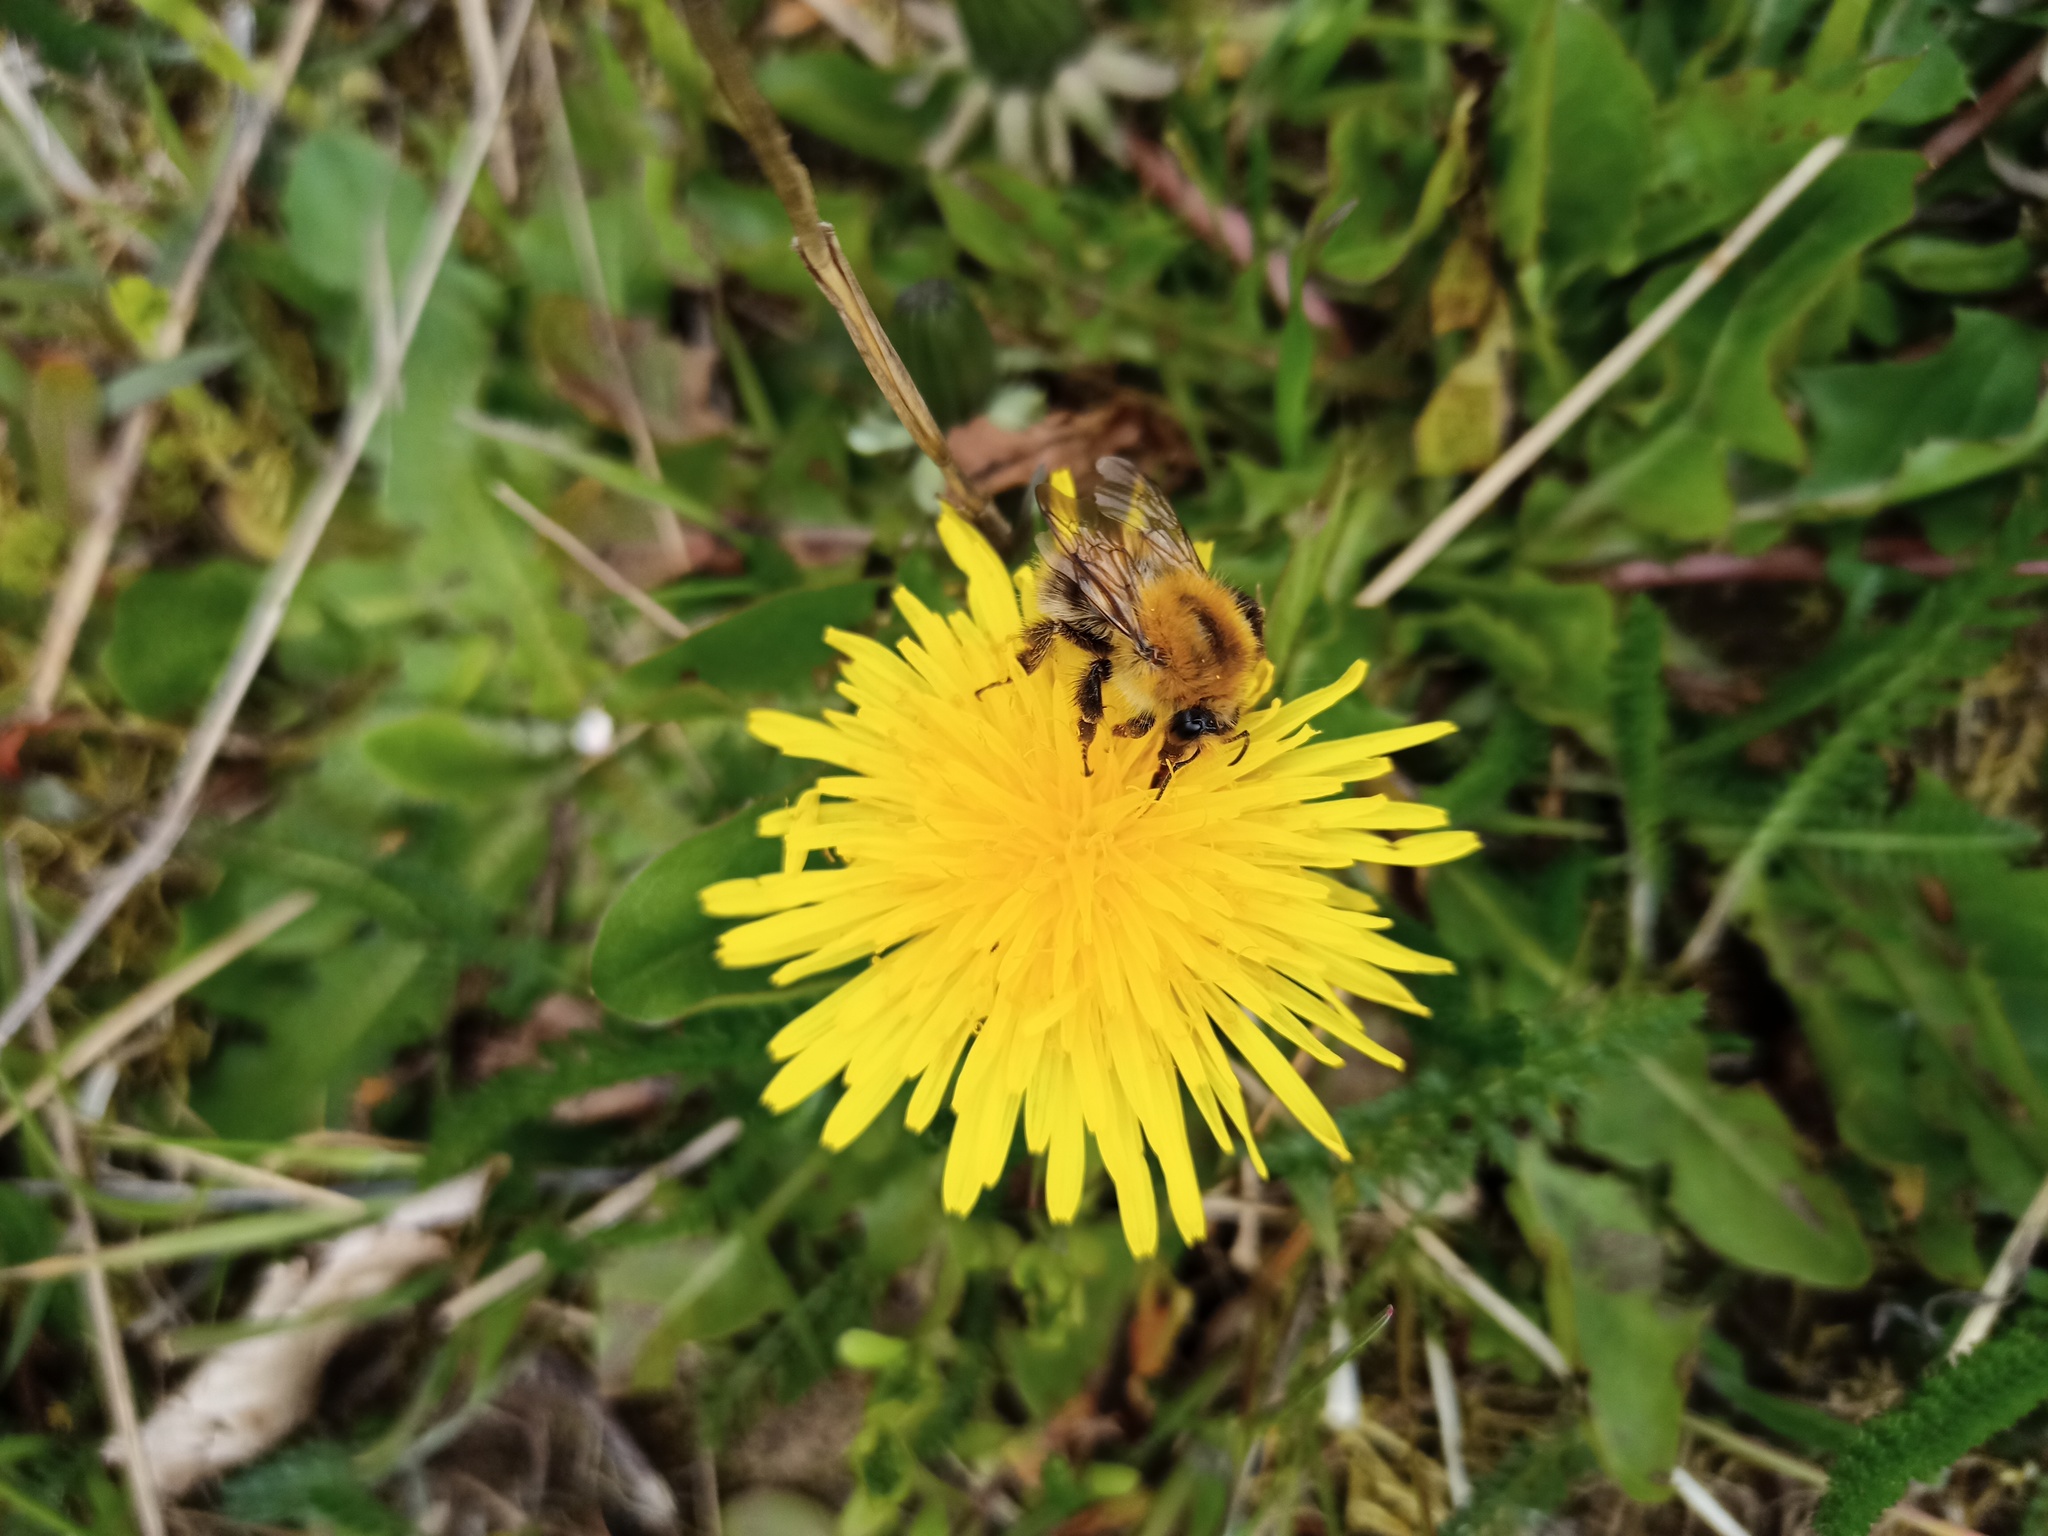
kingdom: Animalia
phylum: Arthropoda
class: Insecta
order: Hymenoptera
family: Apidae
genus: Bombus
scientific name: Bombus pascuorum
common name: Common carder bee
